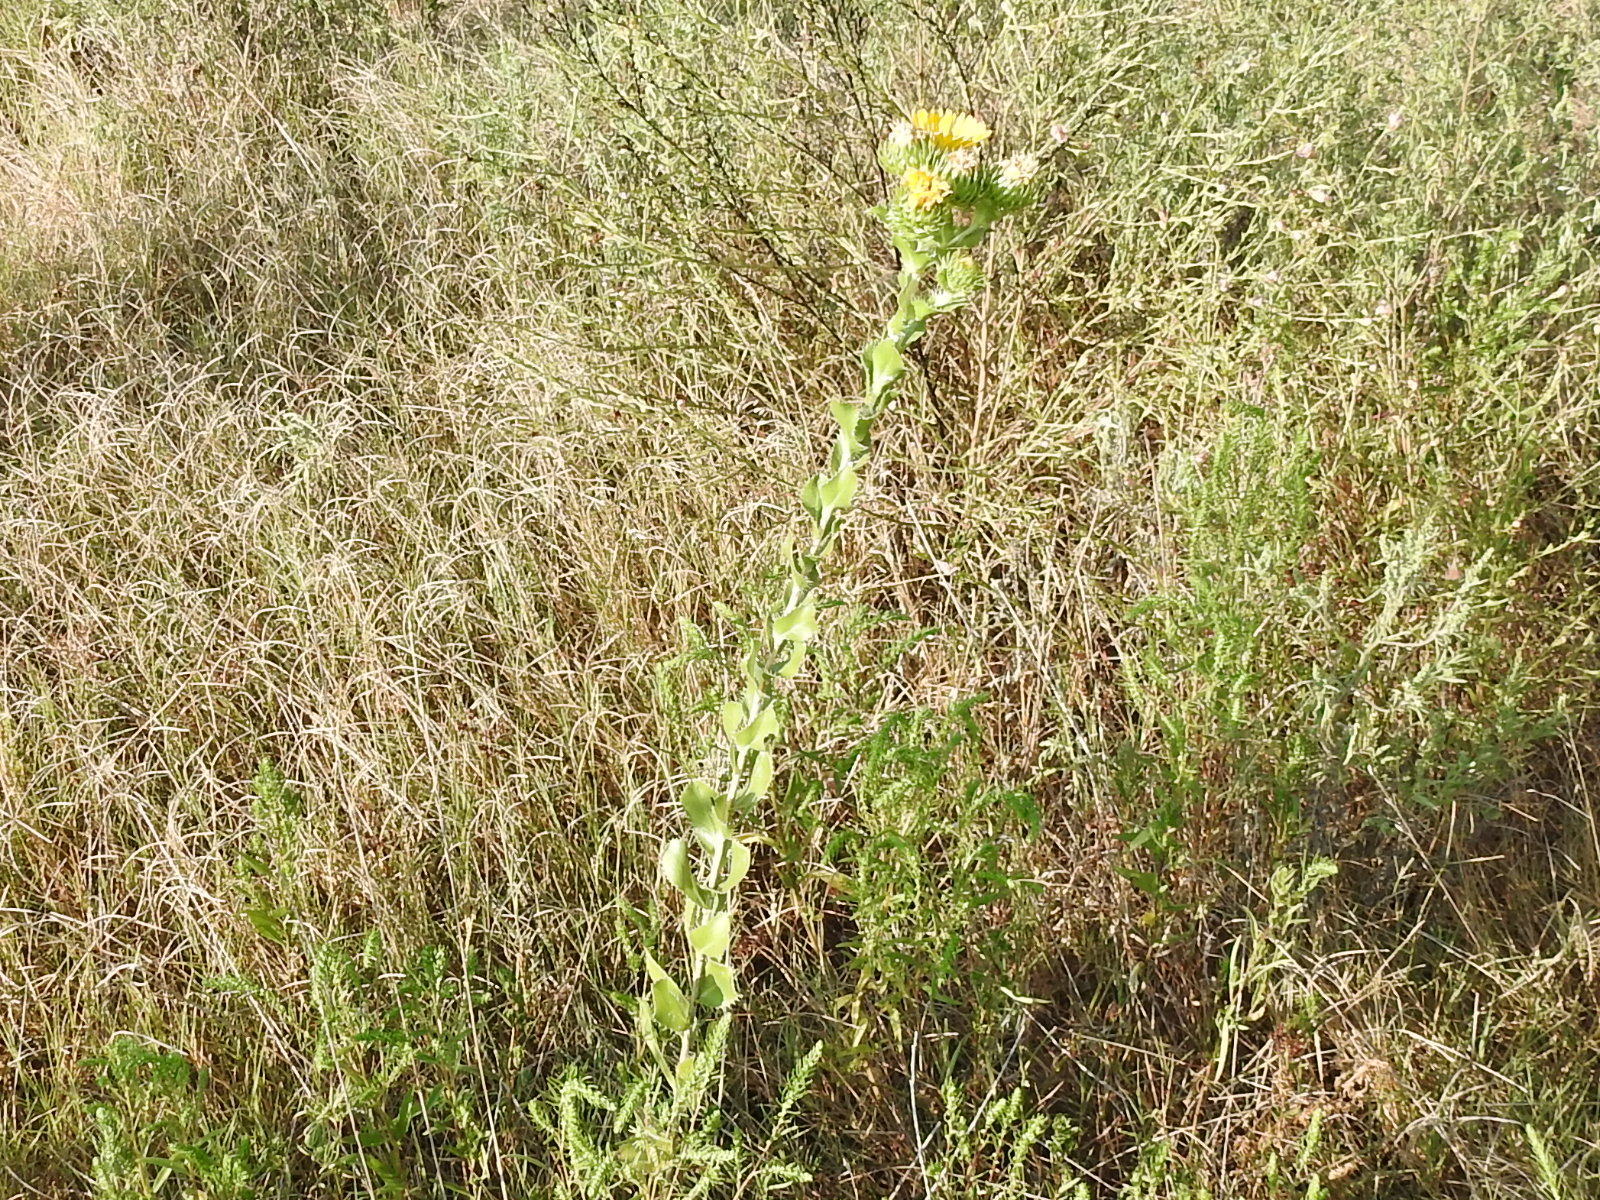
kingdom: Plantae
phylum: Tracheophyta
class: Magnoliopsida
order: Asterales
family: Asteraceae
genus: Grindelia
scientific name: Grindelia ciliata
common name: Goldenweed
